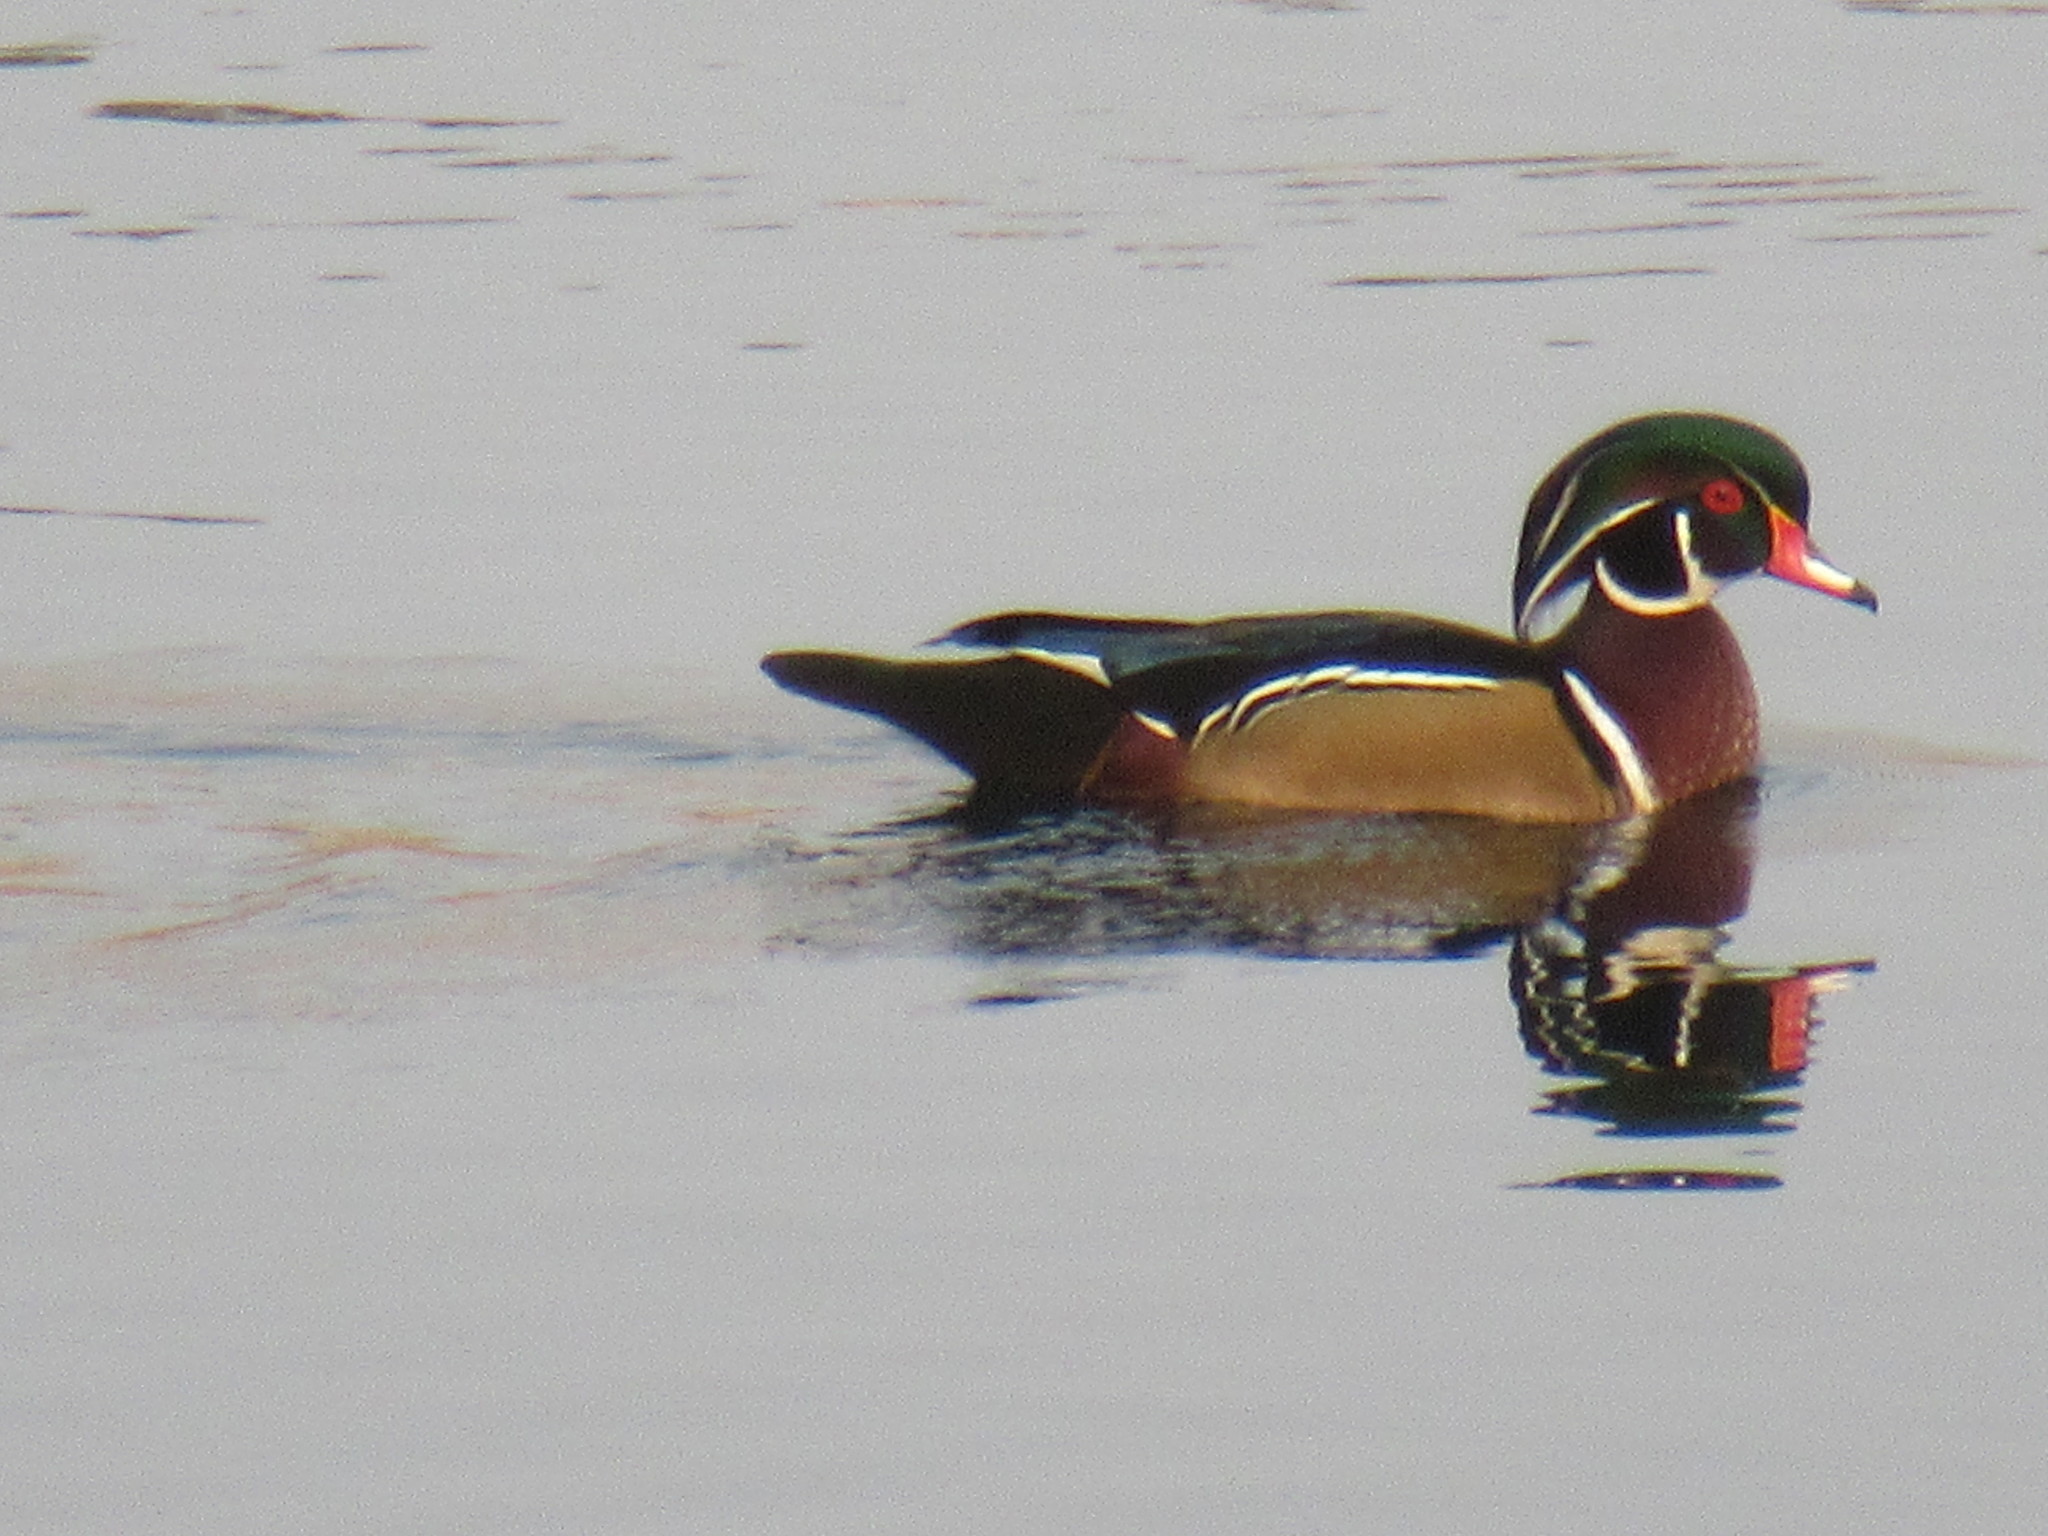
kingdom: Animalia
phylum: Chordata
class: Aves
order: Anseriformes
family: Anatidae
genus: Aix
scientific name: Aix sponsa
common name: Wood duck
